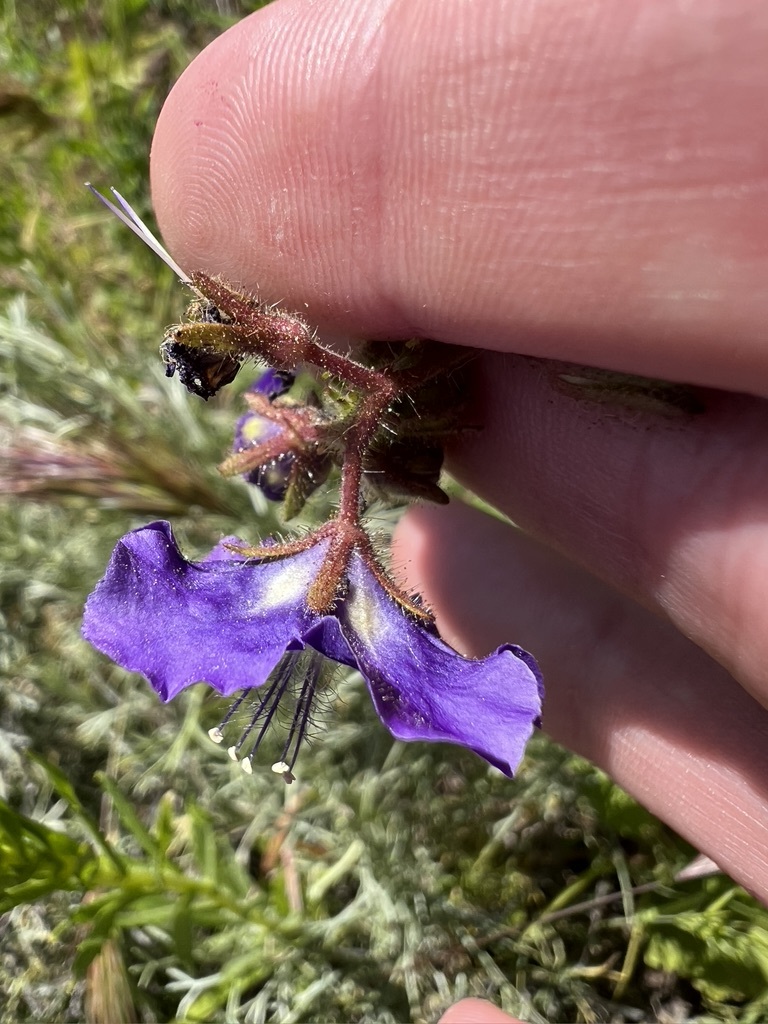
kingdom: Plantae
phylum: Tracheophyta
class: Magnoliopsida
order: Boraginales
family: Hydrophyllaceae
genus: Phacelia
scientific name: Phacelia parryi
